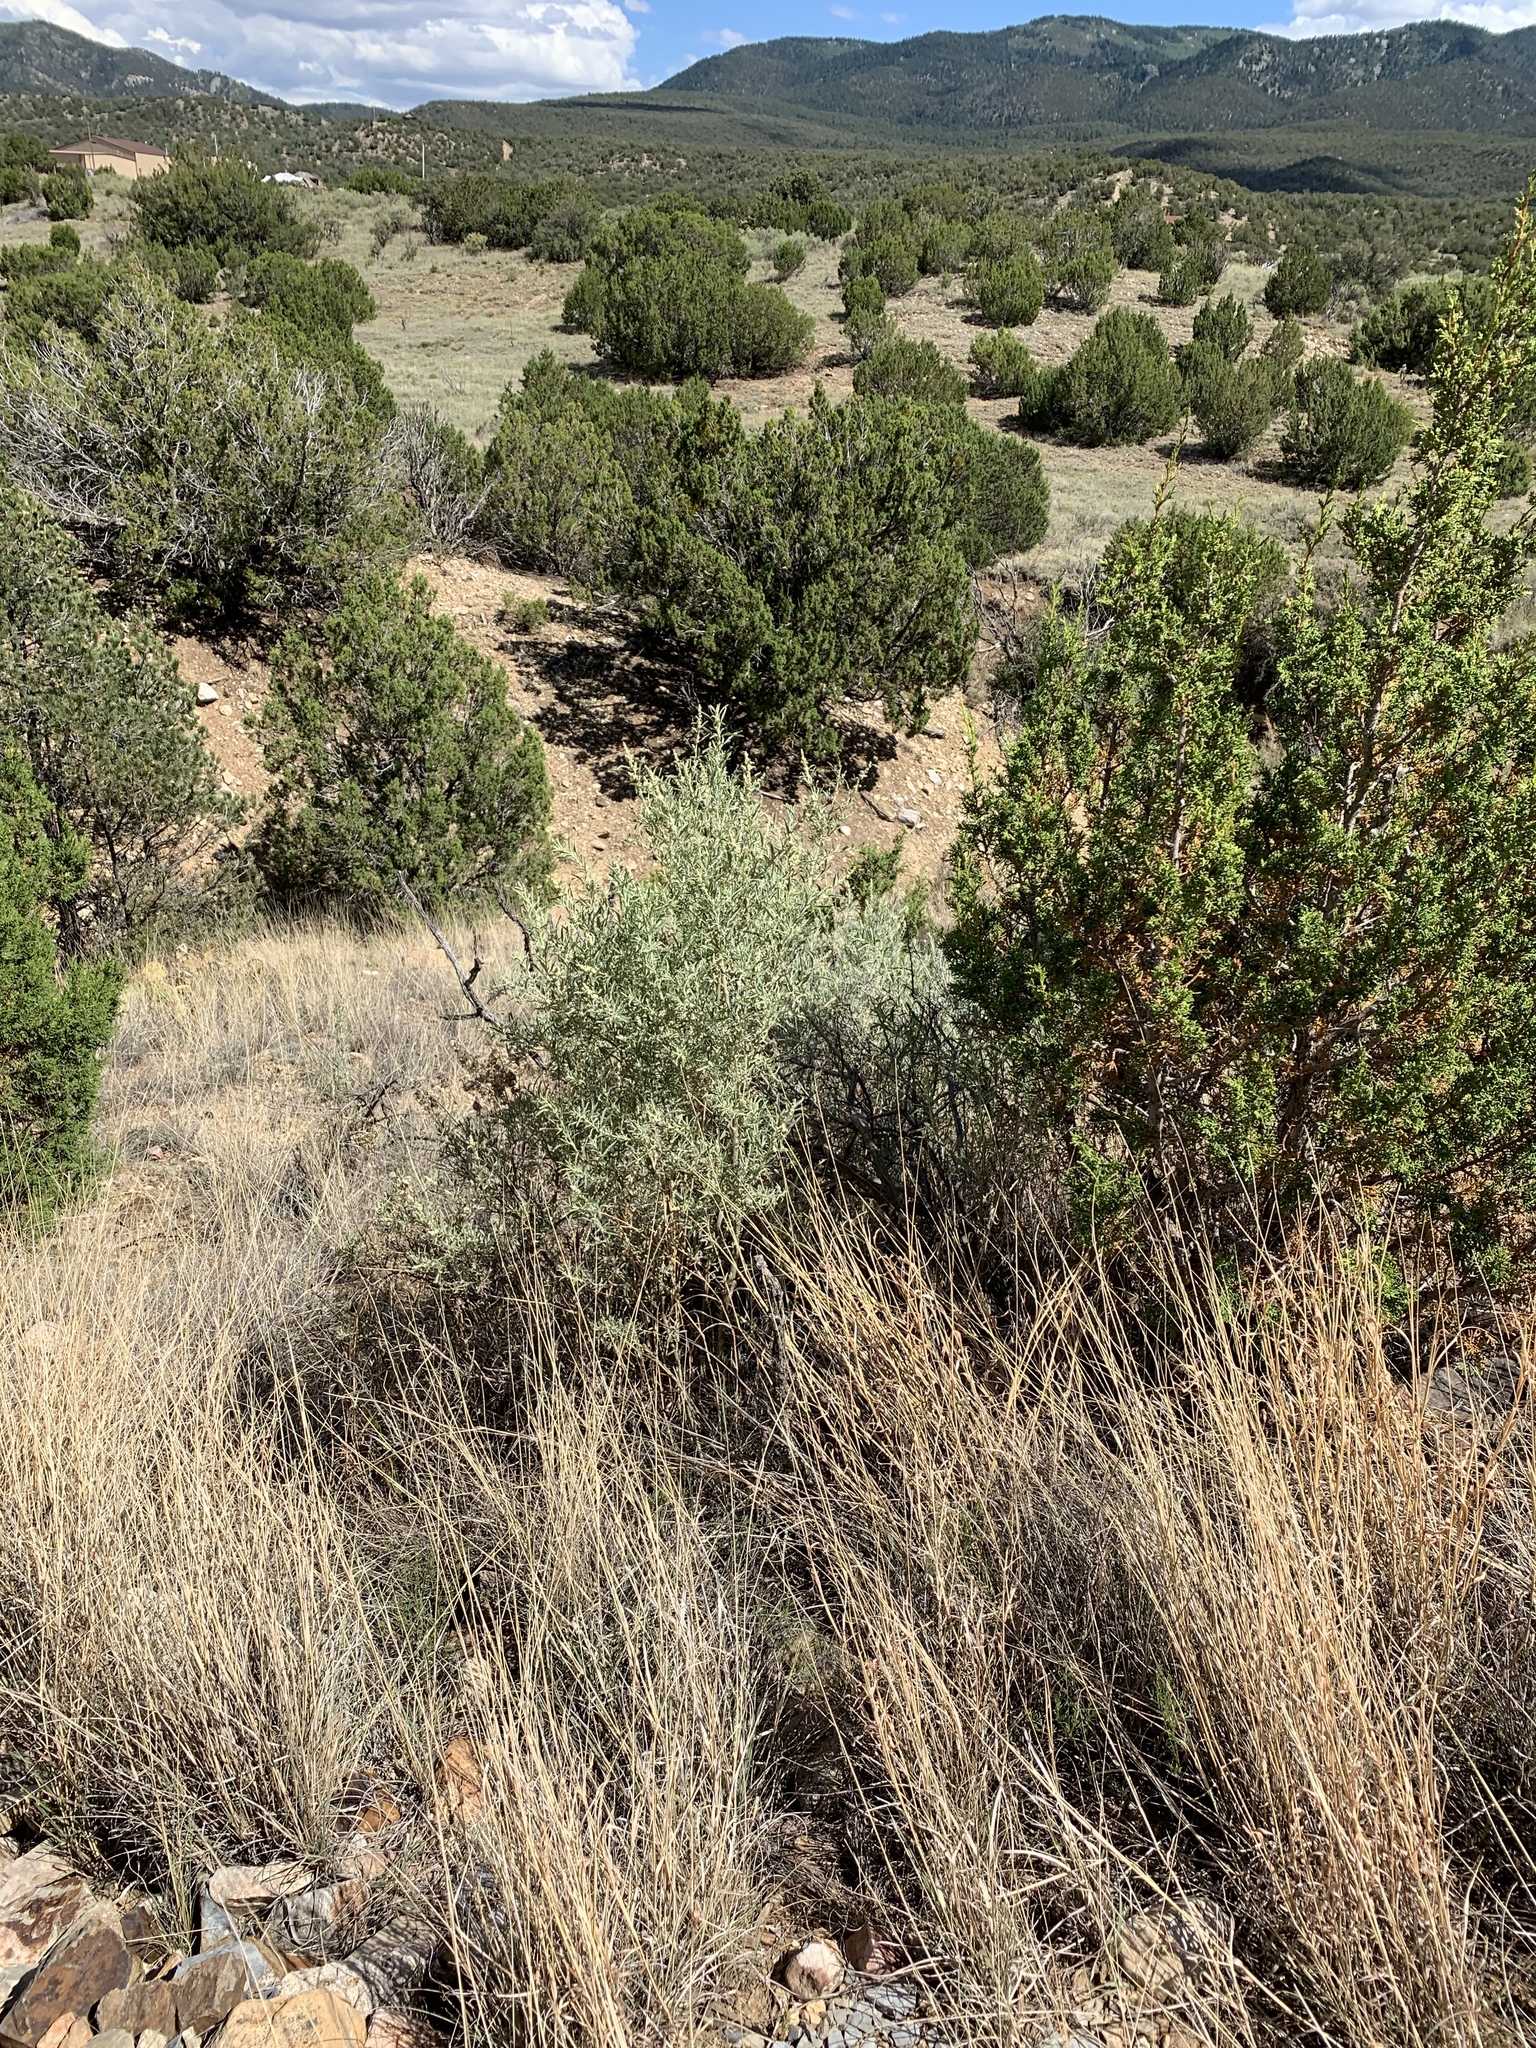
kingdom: Plantae
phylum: Tracheophyta
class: Magnoliopsida
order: Caryophyllales
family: Amaranthaceae
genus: Atriplex
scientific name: Atriplex canescens
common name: Four-wing saltbush
